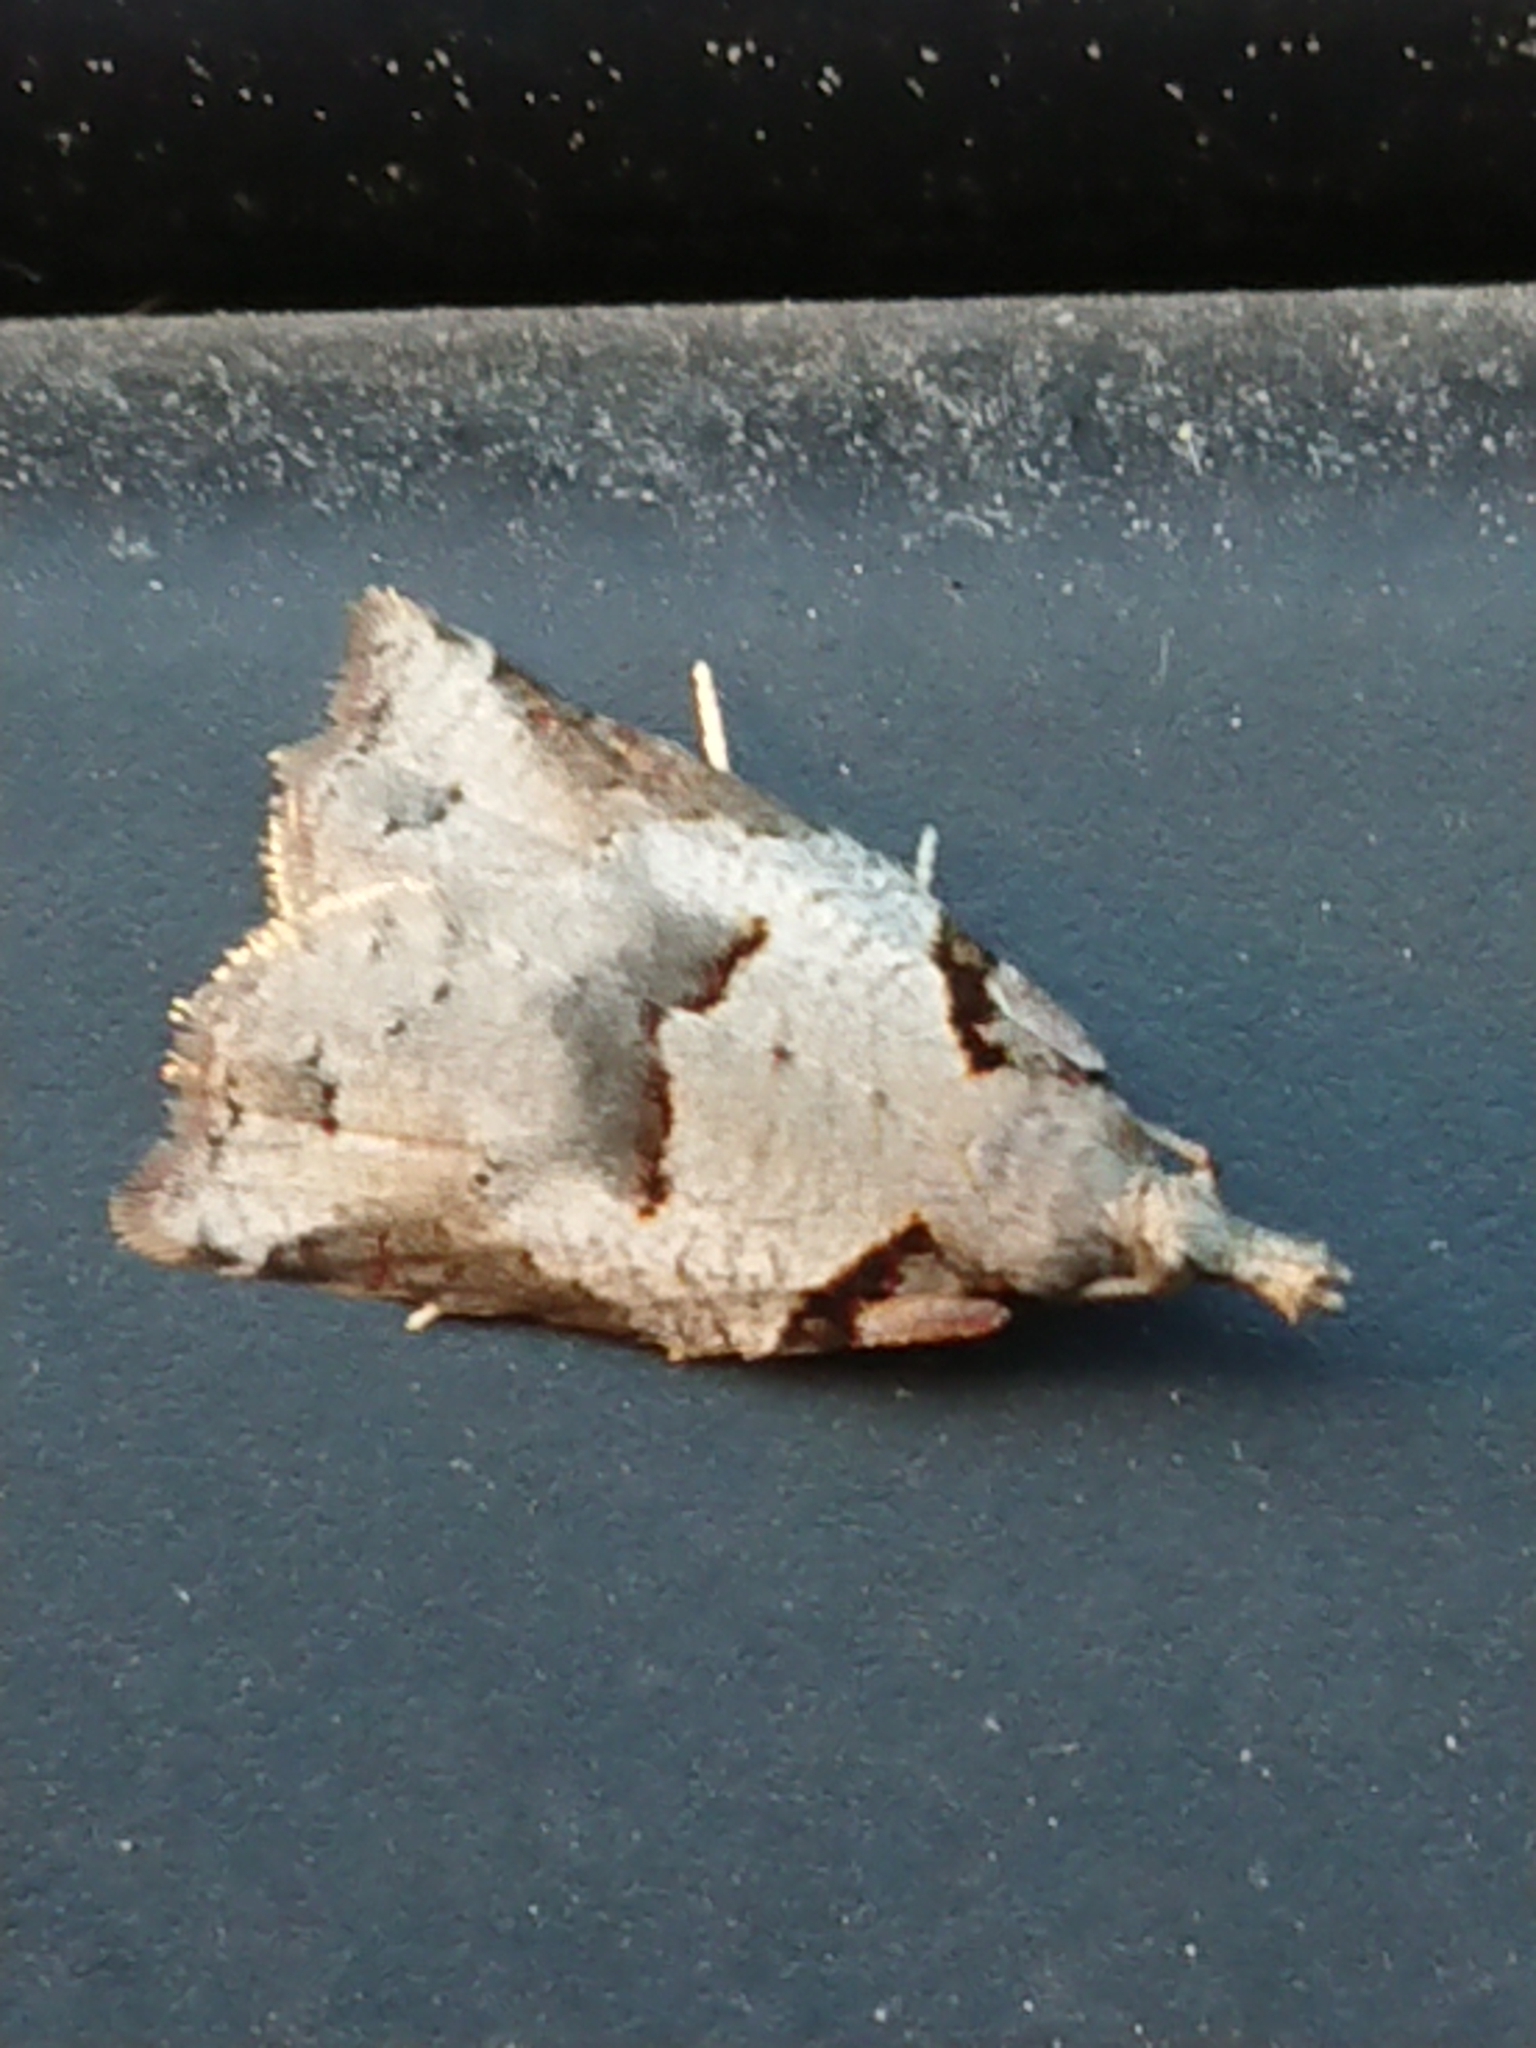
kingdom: Animalia
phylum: Arthropoda
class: Insecta
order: Lepidoptera
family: Tortricidae
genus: Harmologa
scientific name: Harmologa amplexana
